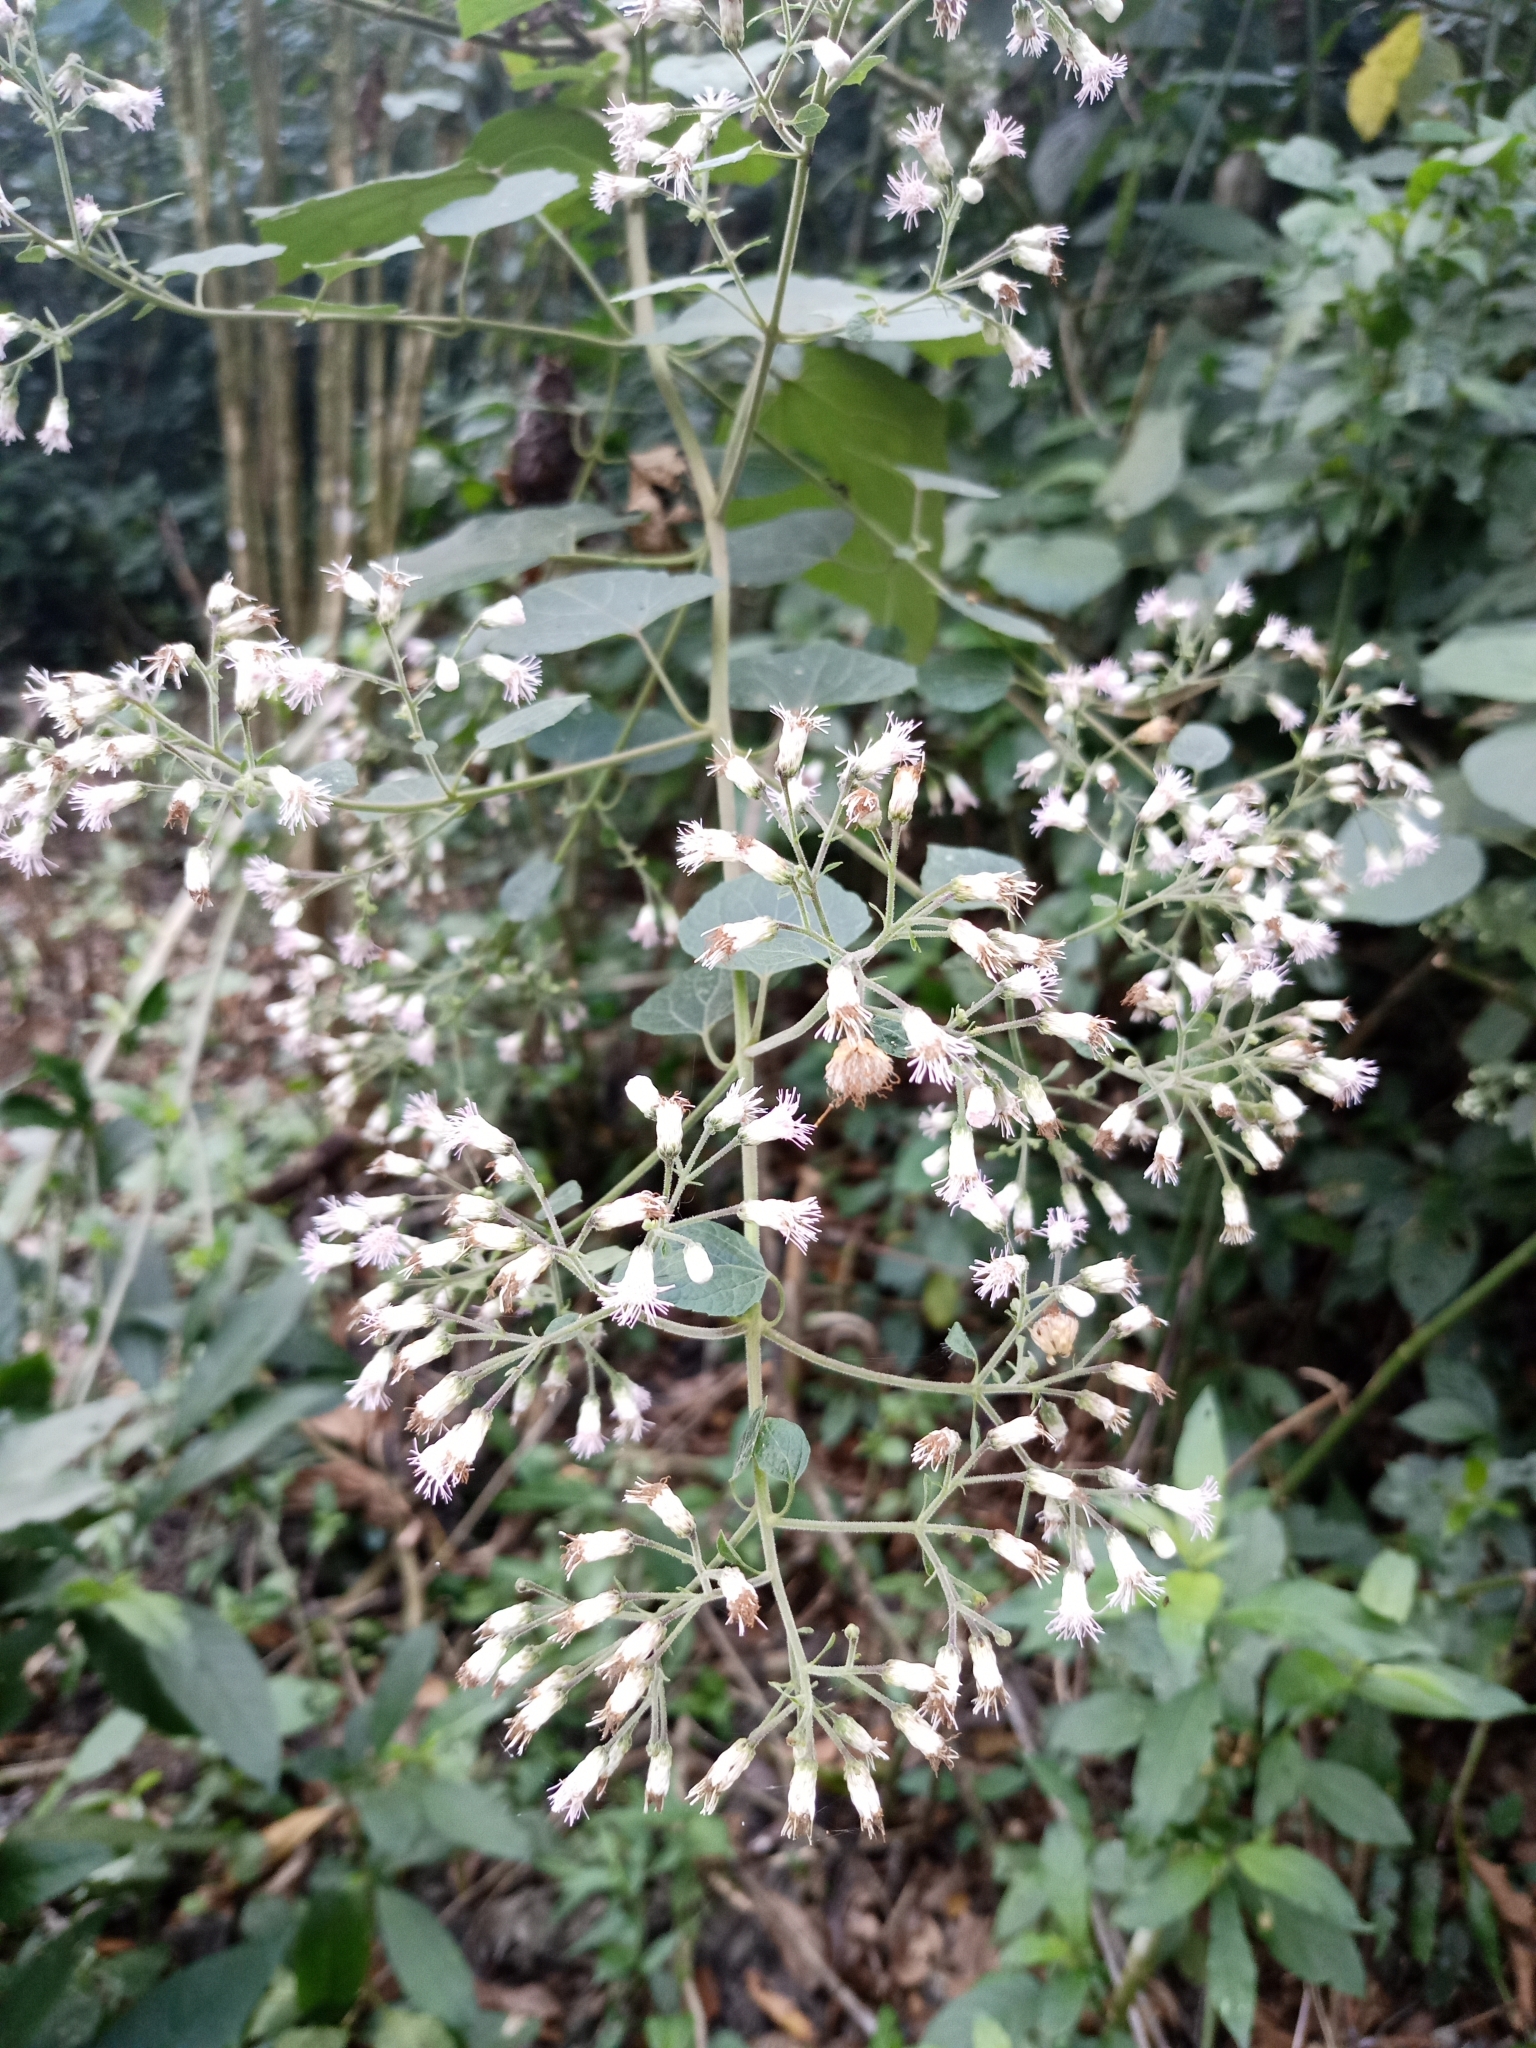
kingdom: Plantae
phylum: Tracheophyta
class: Magnoliopsida
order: Asterales
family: Asteraceae
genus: Cyanthillium
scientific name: Cyanthillium cinereum
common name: Little ironweed
